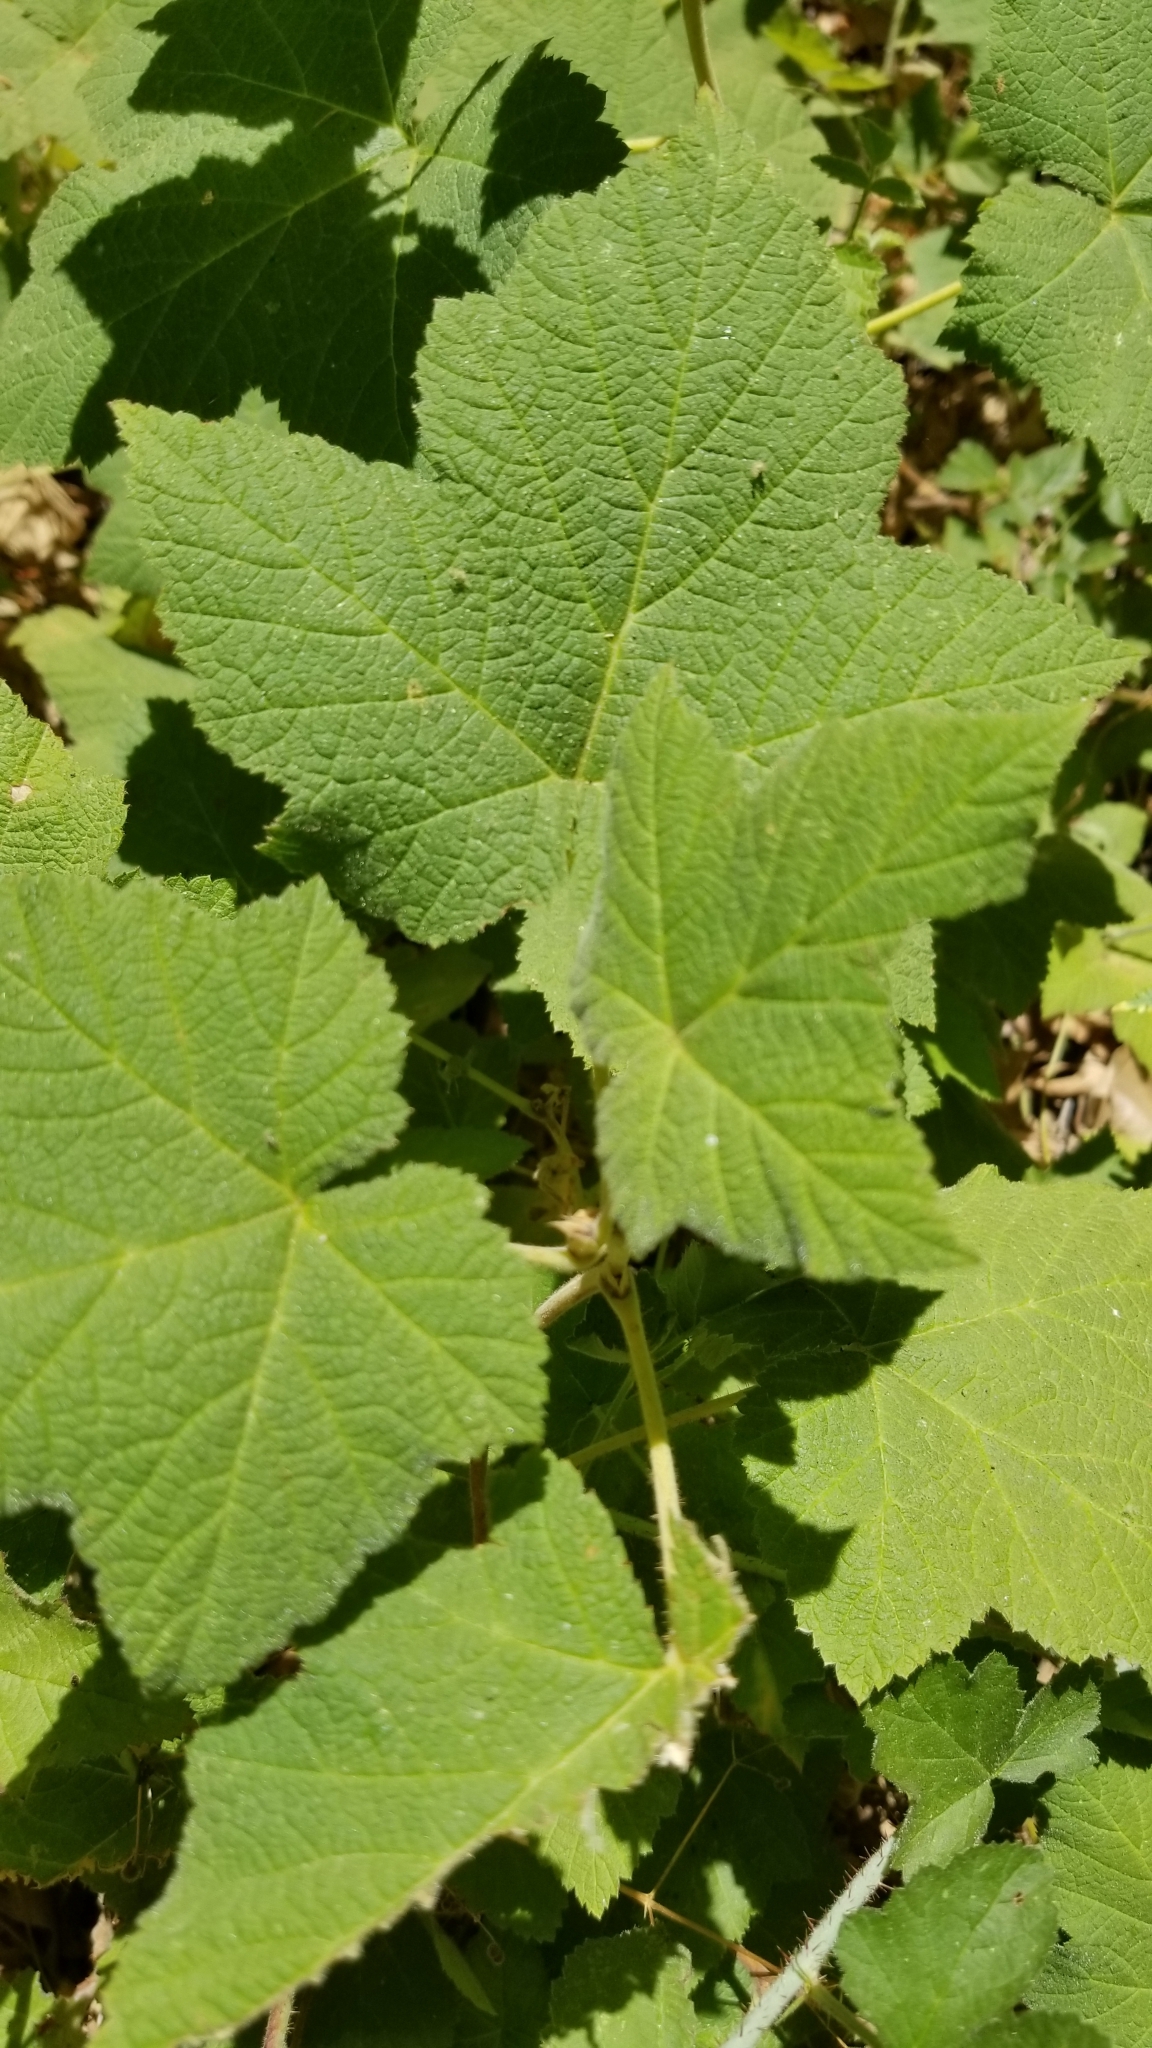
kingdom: Plantae
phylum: Tracheophyta
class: Magnoliopsida
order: Rosales
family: Rosaceae
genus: Rubus
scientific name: Rubus parviflorus
